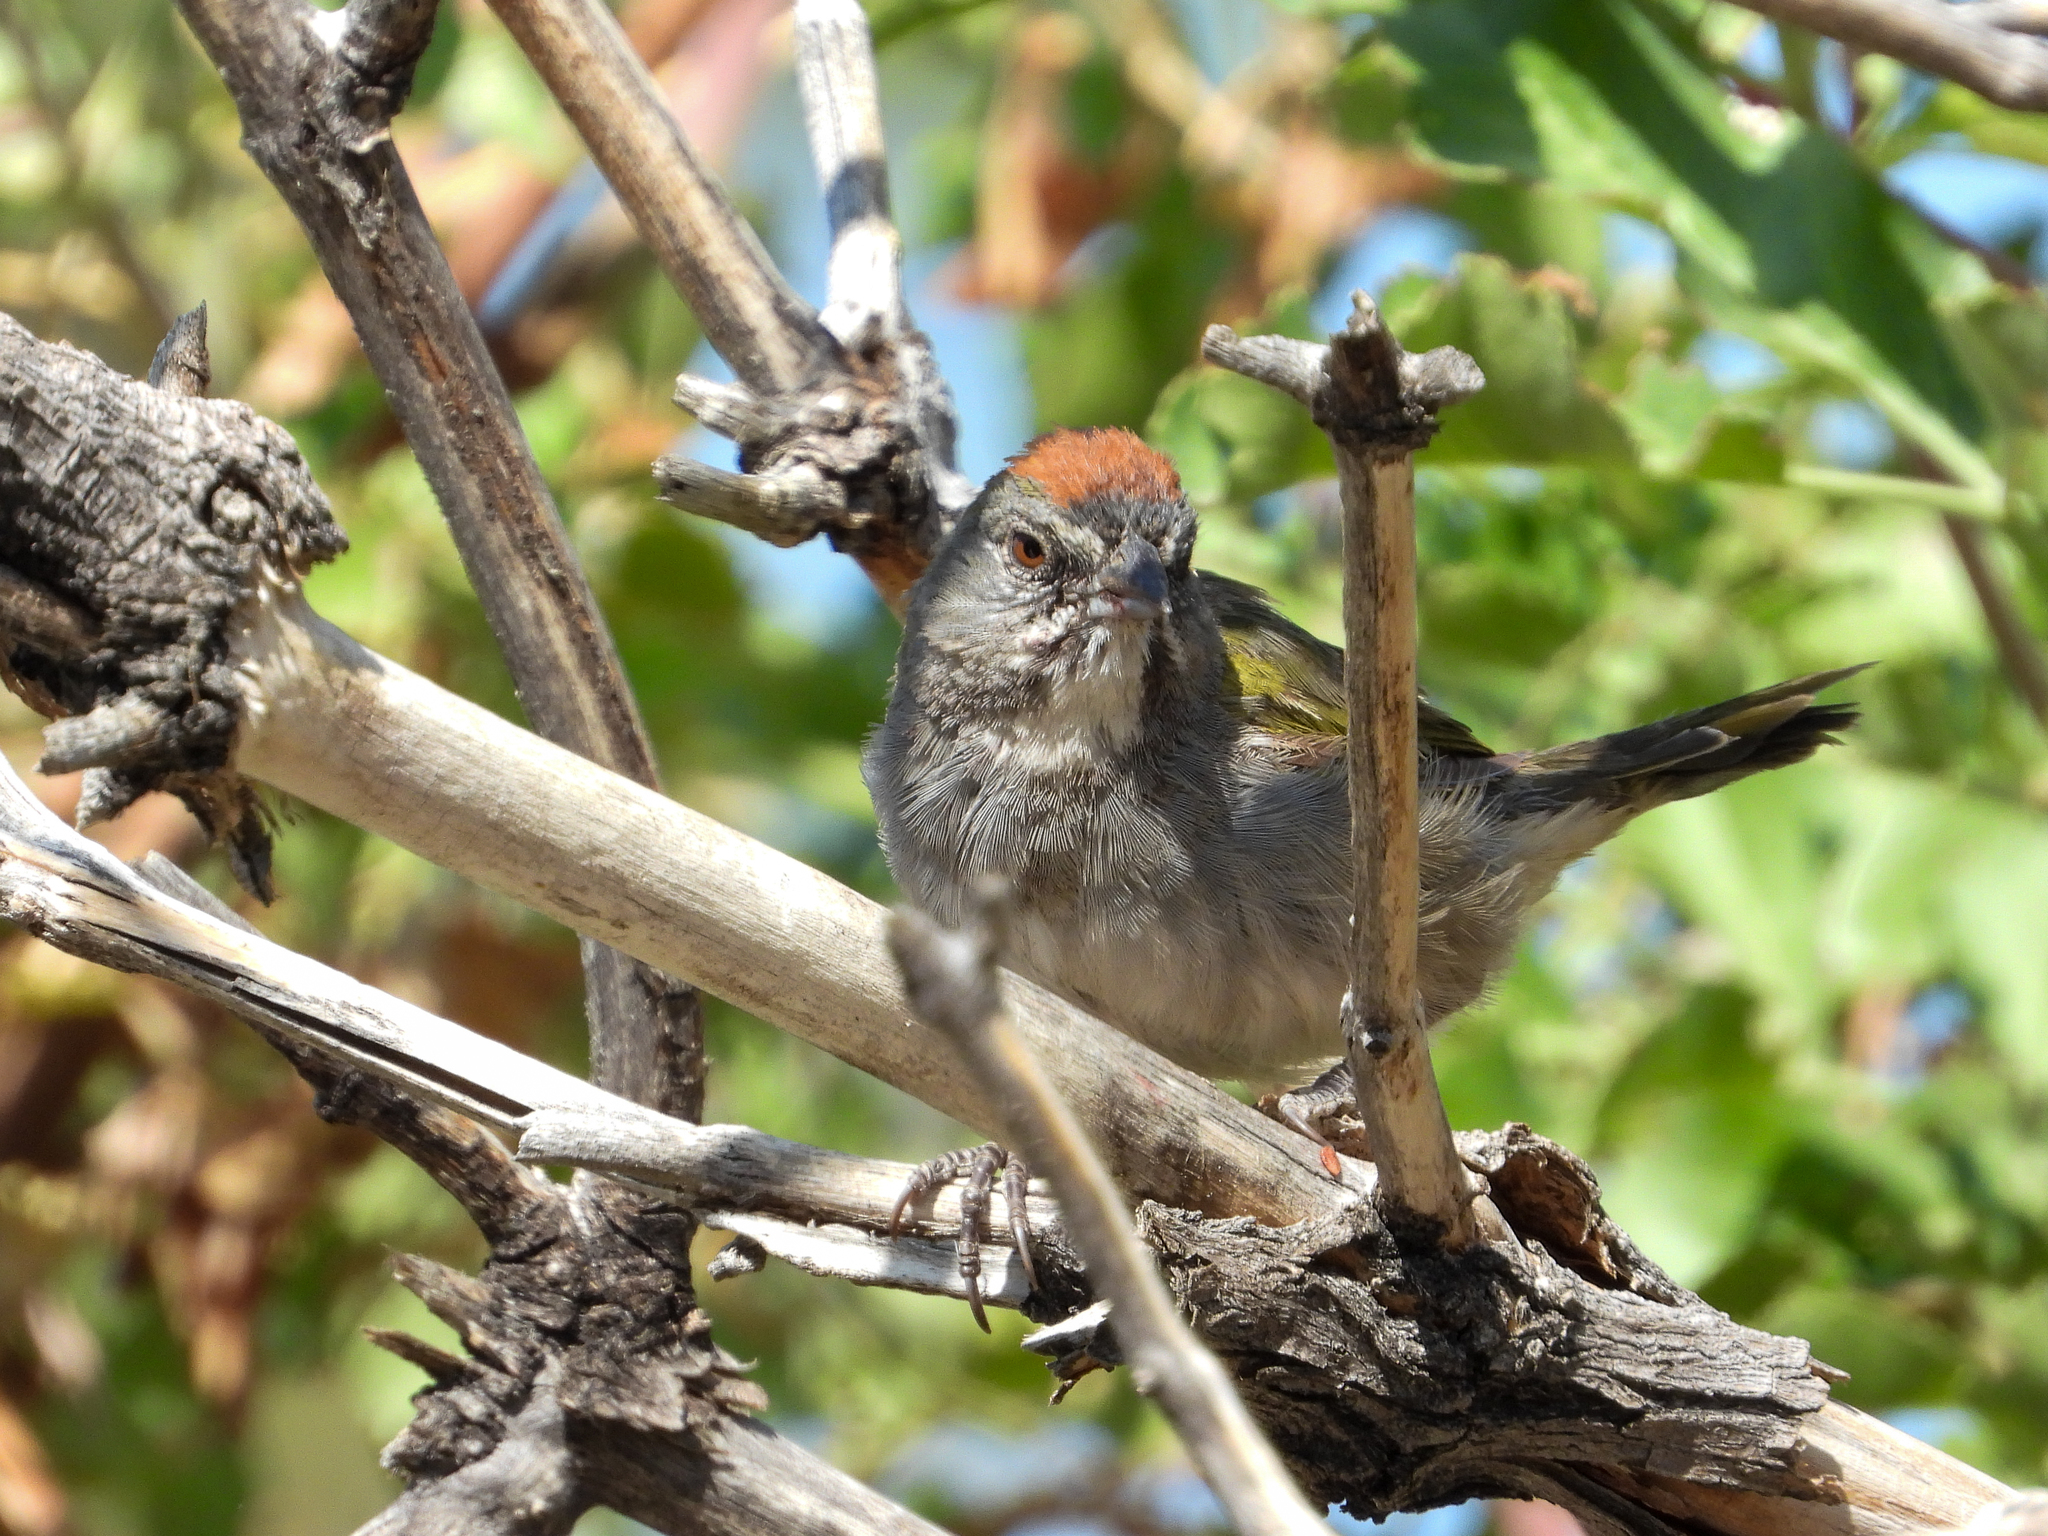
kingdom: Animalia
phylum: Chordata
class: Aves
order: Passeriformes
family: Passerellidae
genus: Pipilo
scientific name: Pipilo chlorurus
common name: Green-tailed towhee
